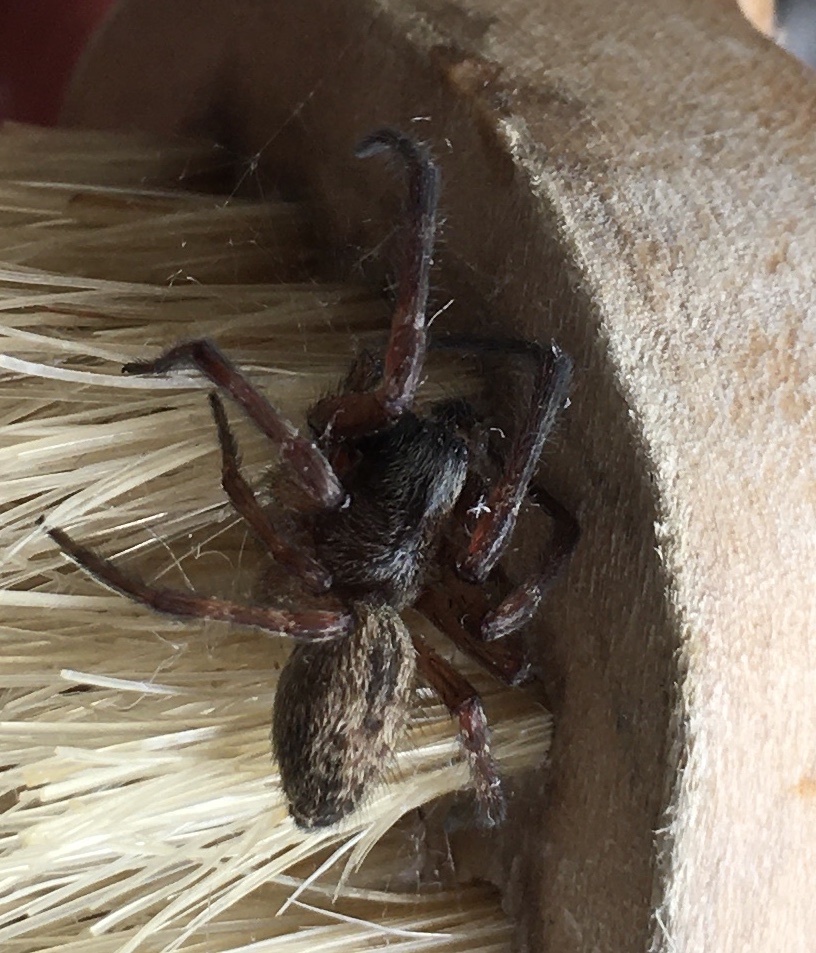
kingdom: Animalia
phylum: Arthropoda
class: Arachnida
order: Araneae
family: Desidae
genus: Badumna
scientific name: Badumna longinqua
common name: Gray house spider
